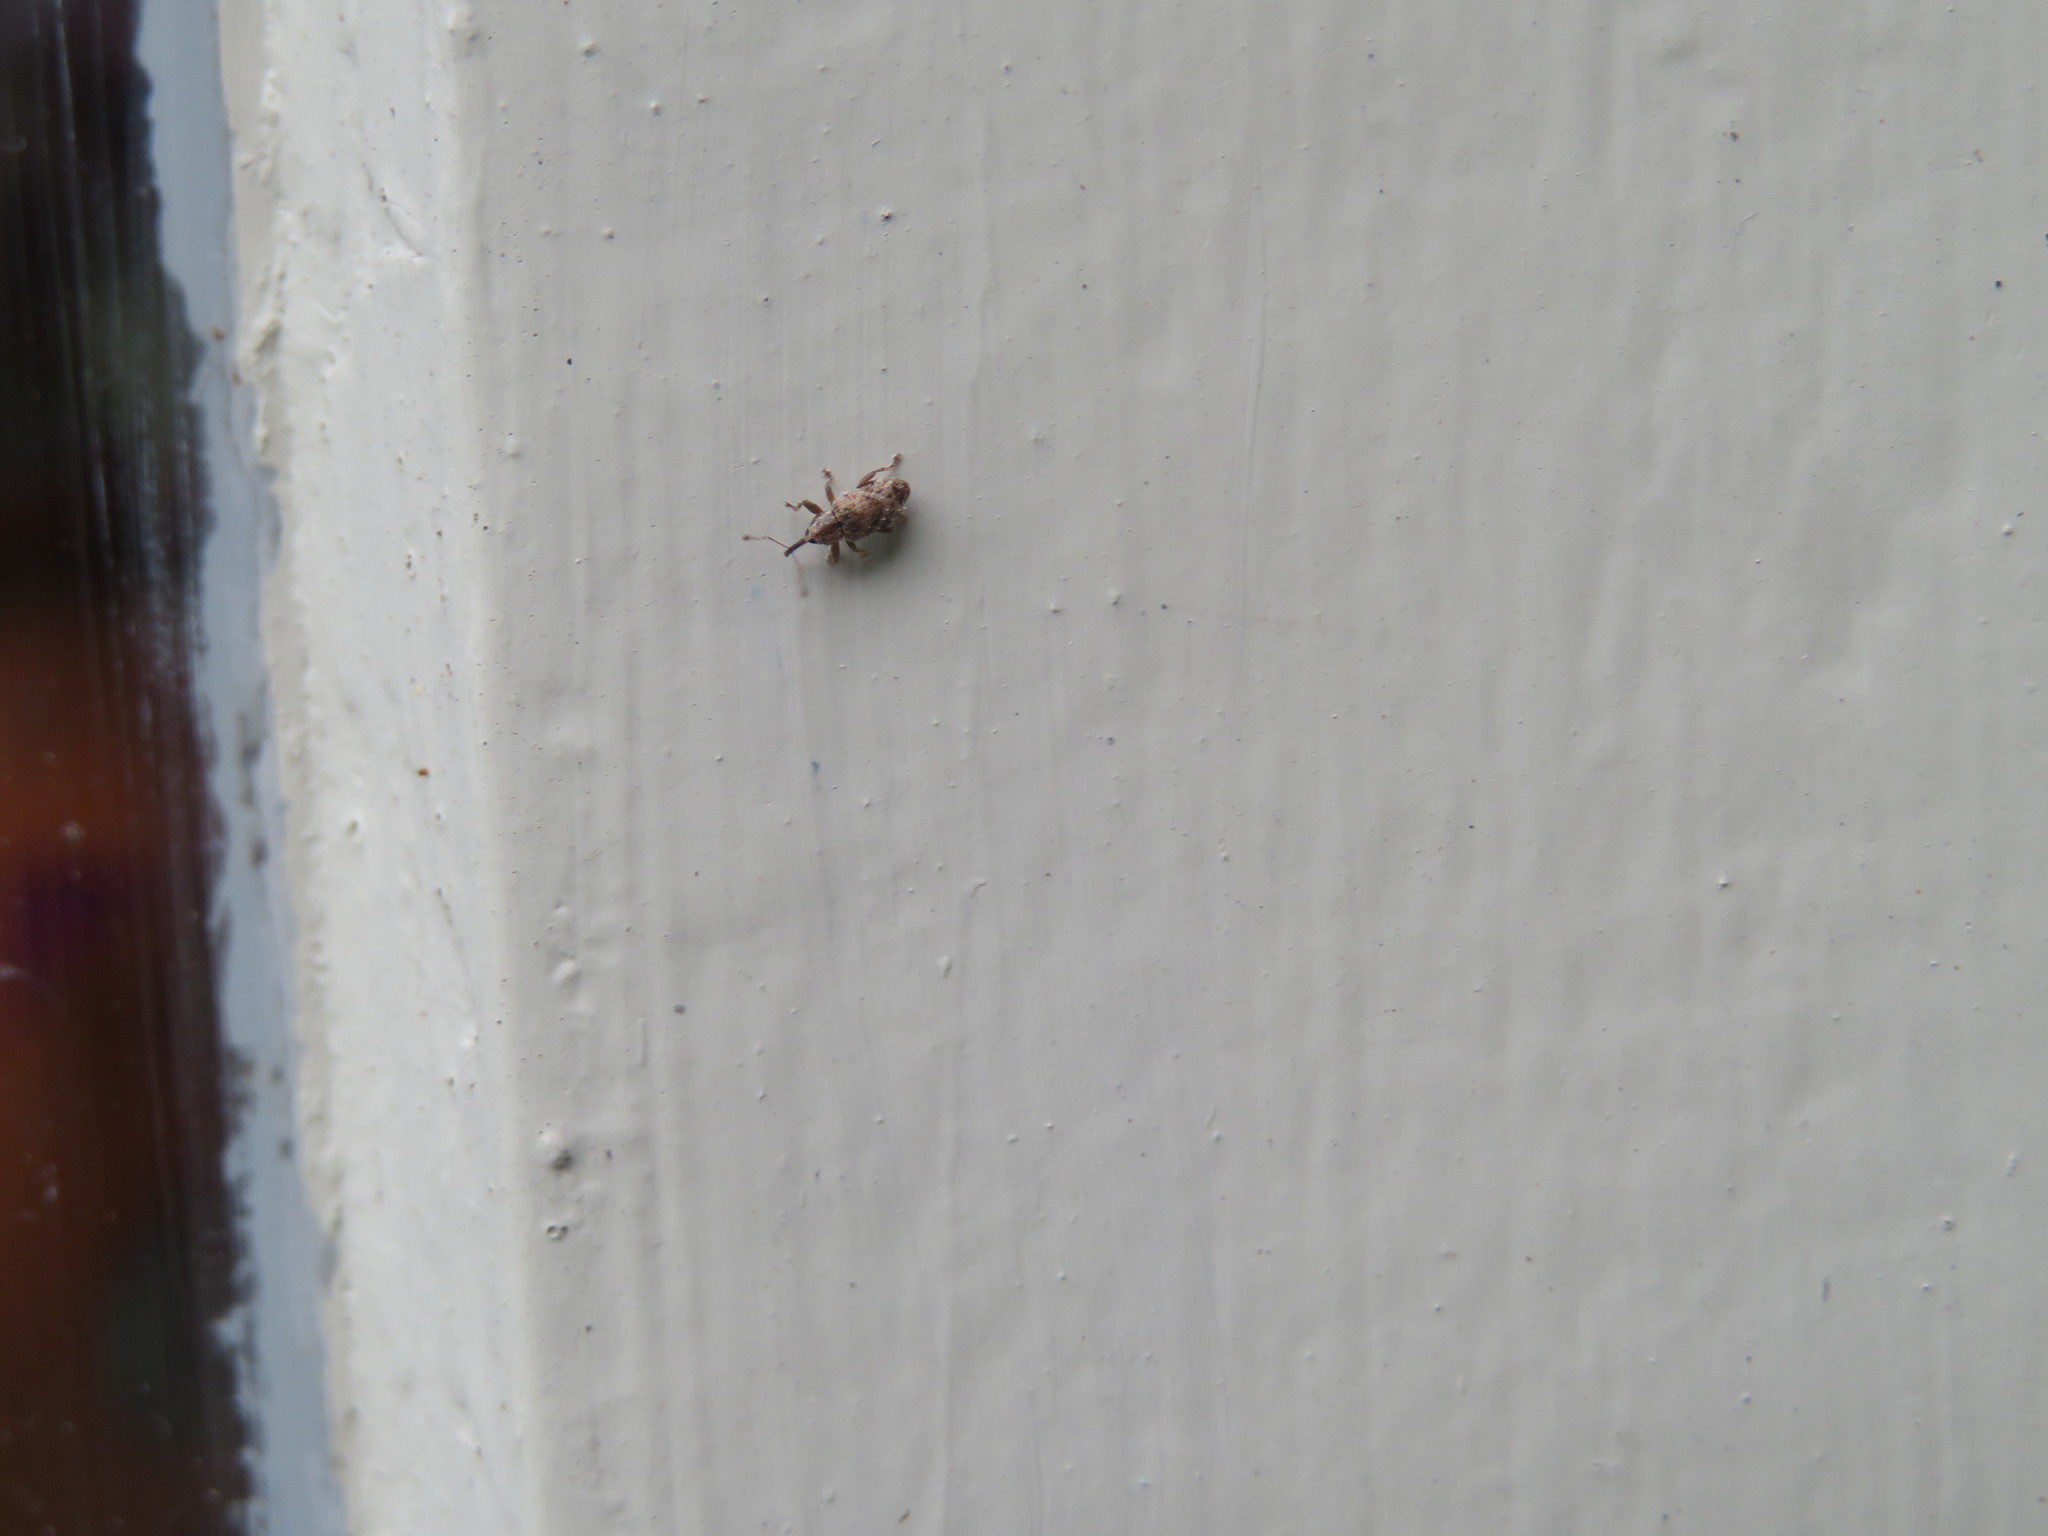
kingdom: Animalia
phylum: Arthropoda
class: Insecta
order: Coleoptera
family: Curculionidae
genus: Praolepra
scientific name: Praolepra infusca
